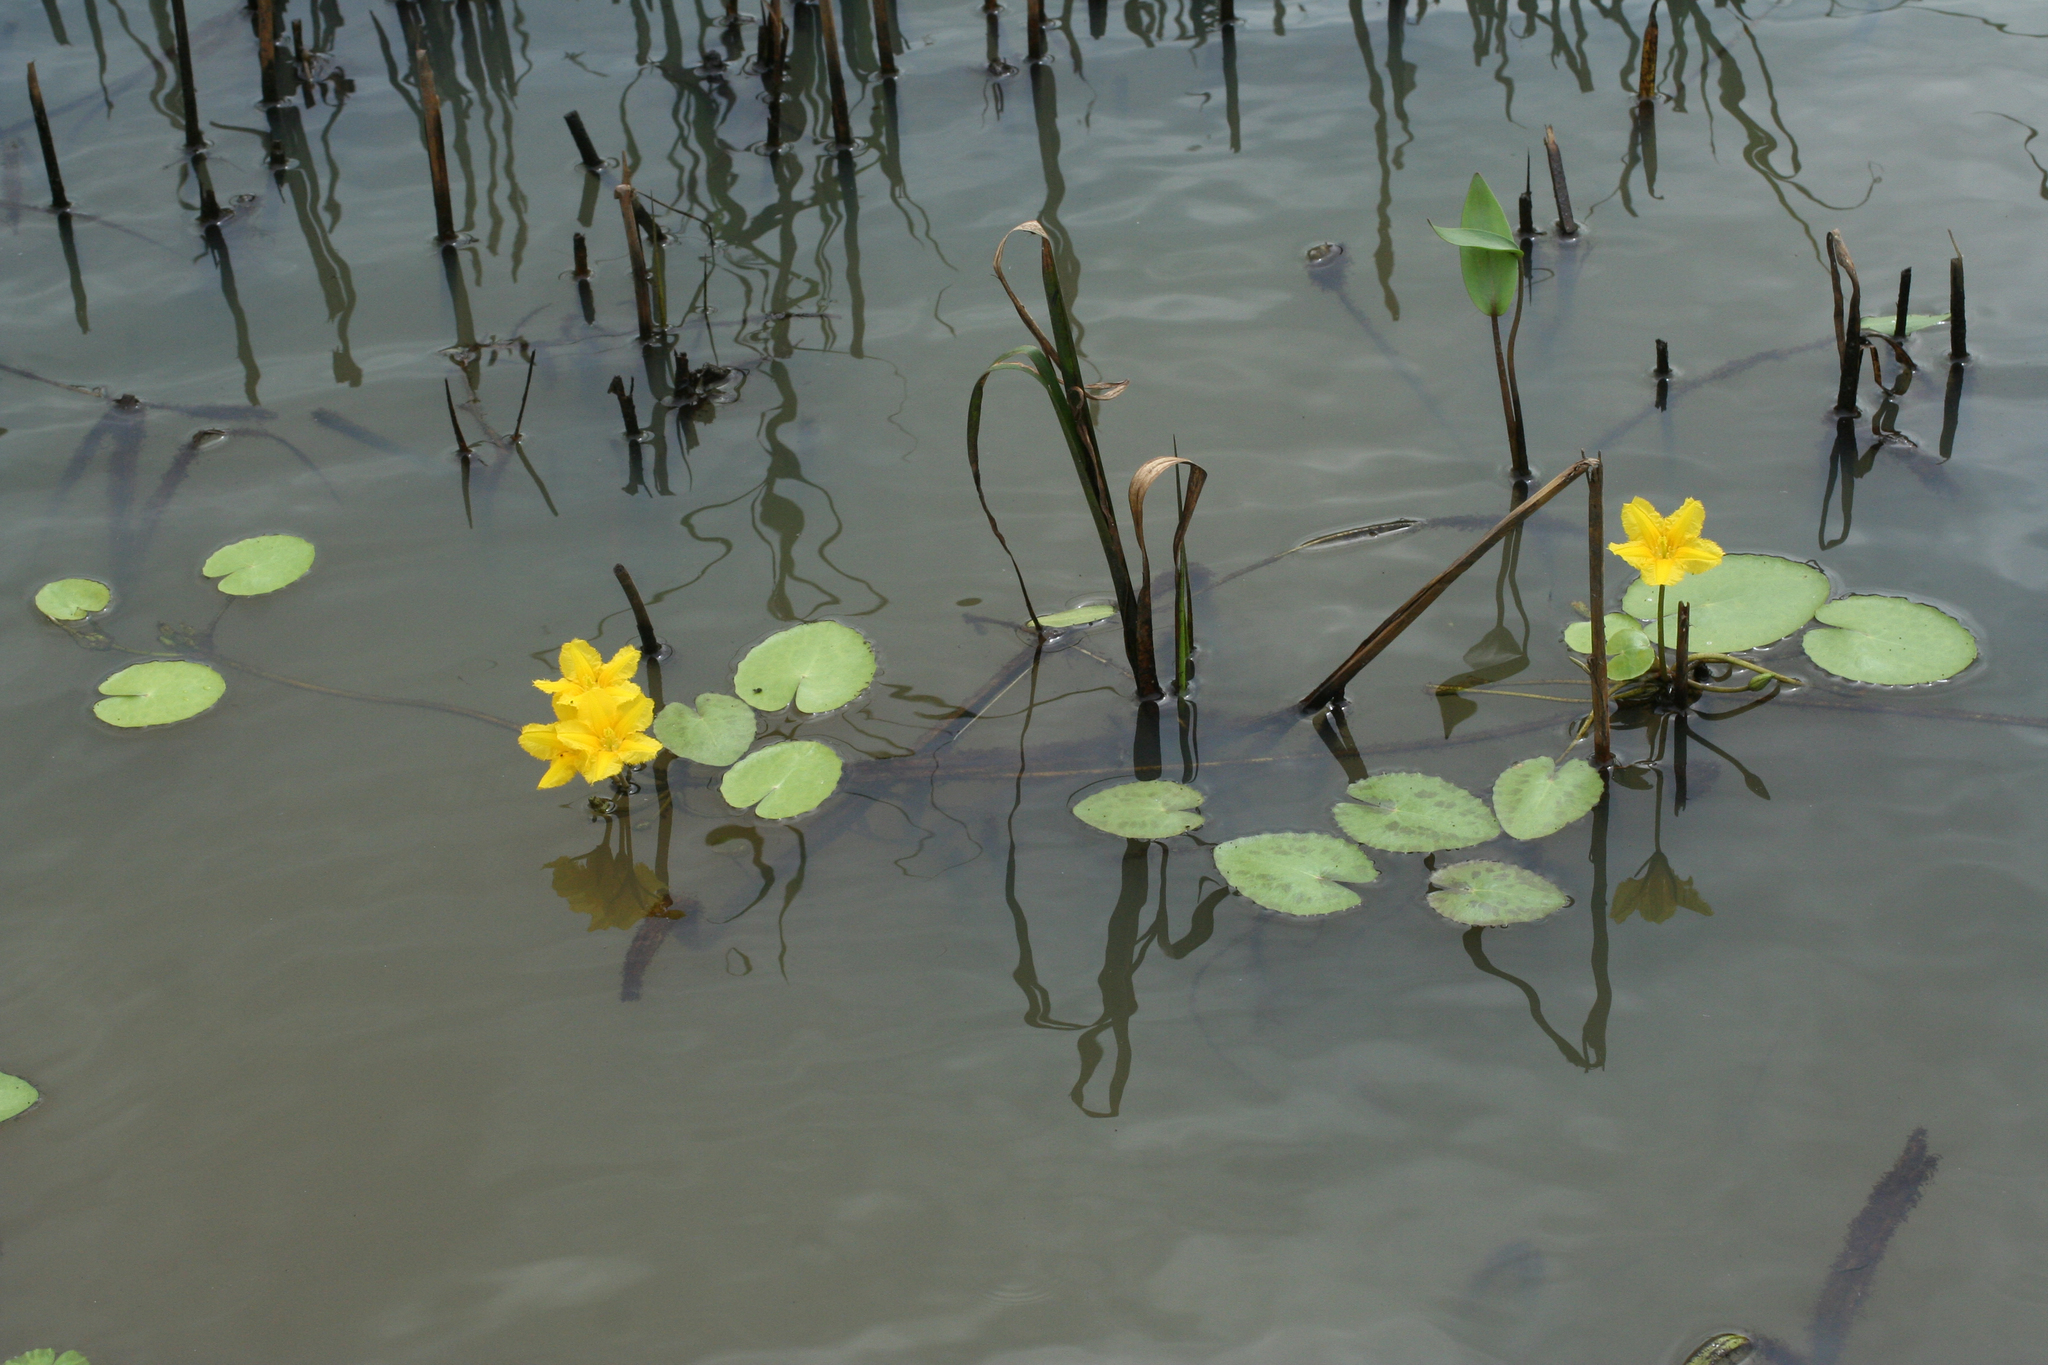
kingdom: Plantae
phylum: Tracheophyta
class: Magnoliopsida
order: Asterales
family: Menyanthaceae
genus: Nymphoides
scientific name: Nymphoides peltata
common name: Fringed water-lily
